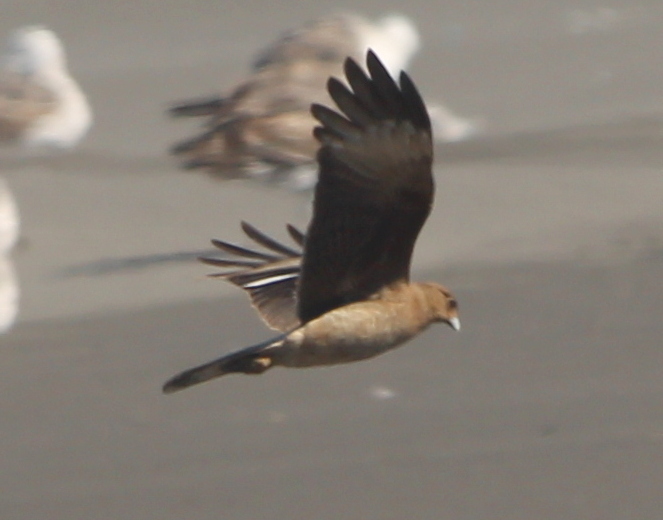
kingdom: Animalia
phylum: Chordata
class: Aves
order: Falconiformes
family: Falconidae
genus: Daptrius
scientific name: Daptrius
